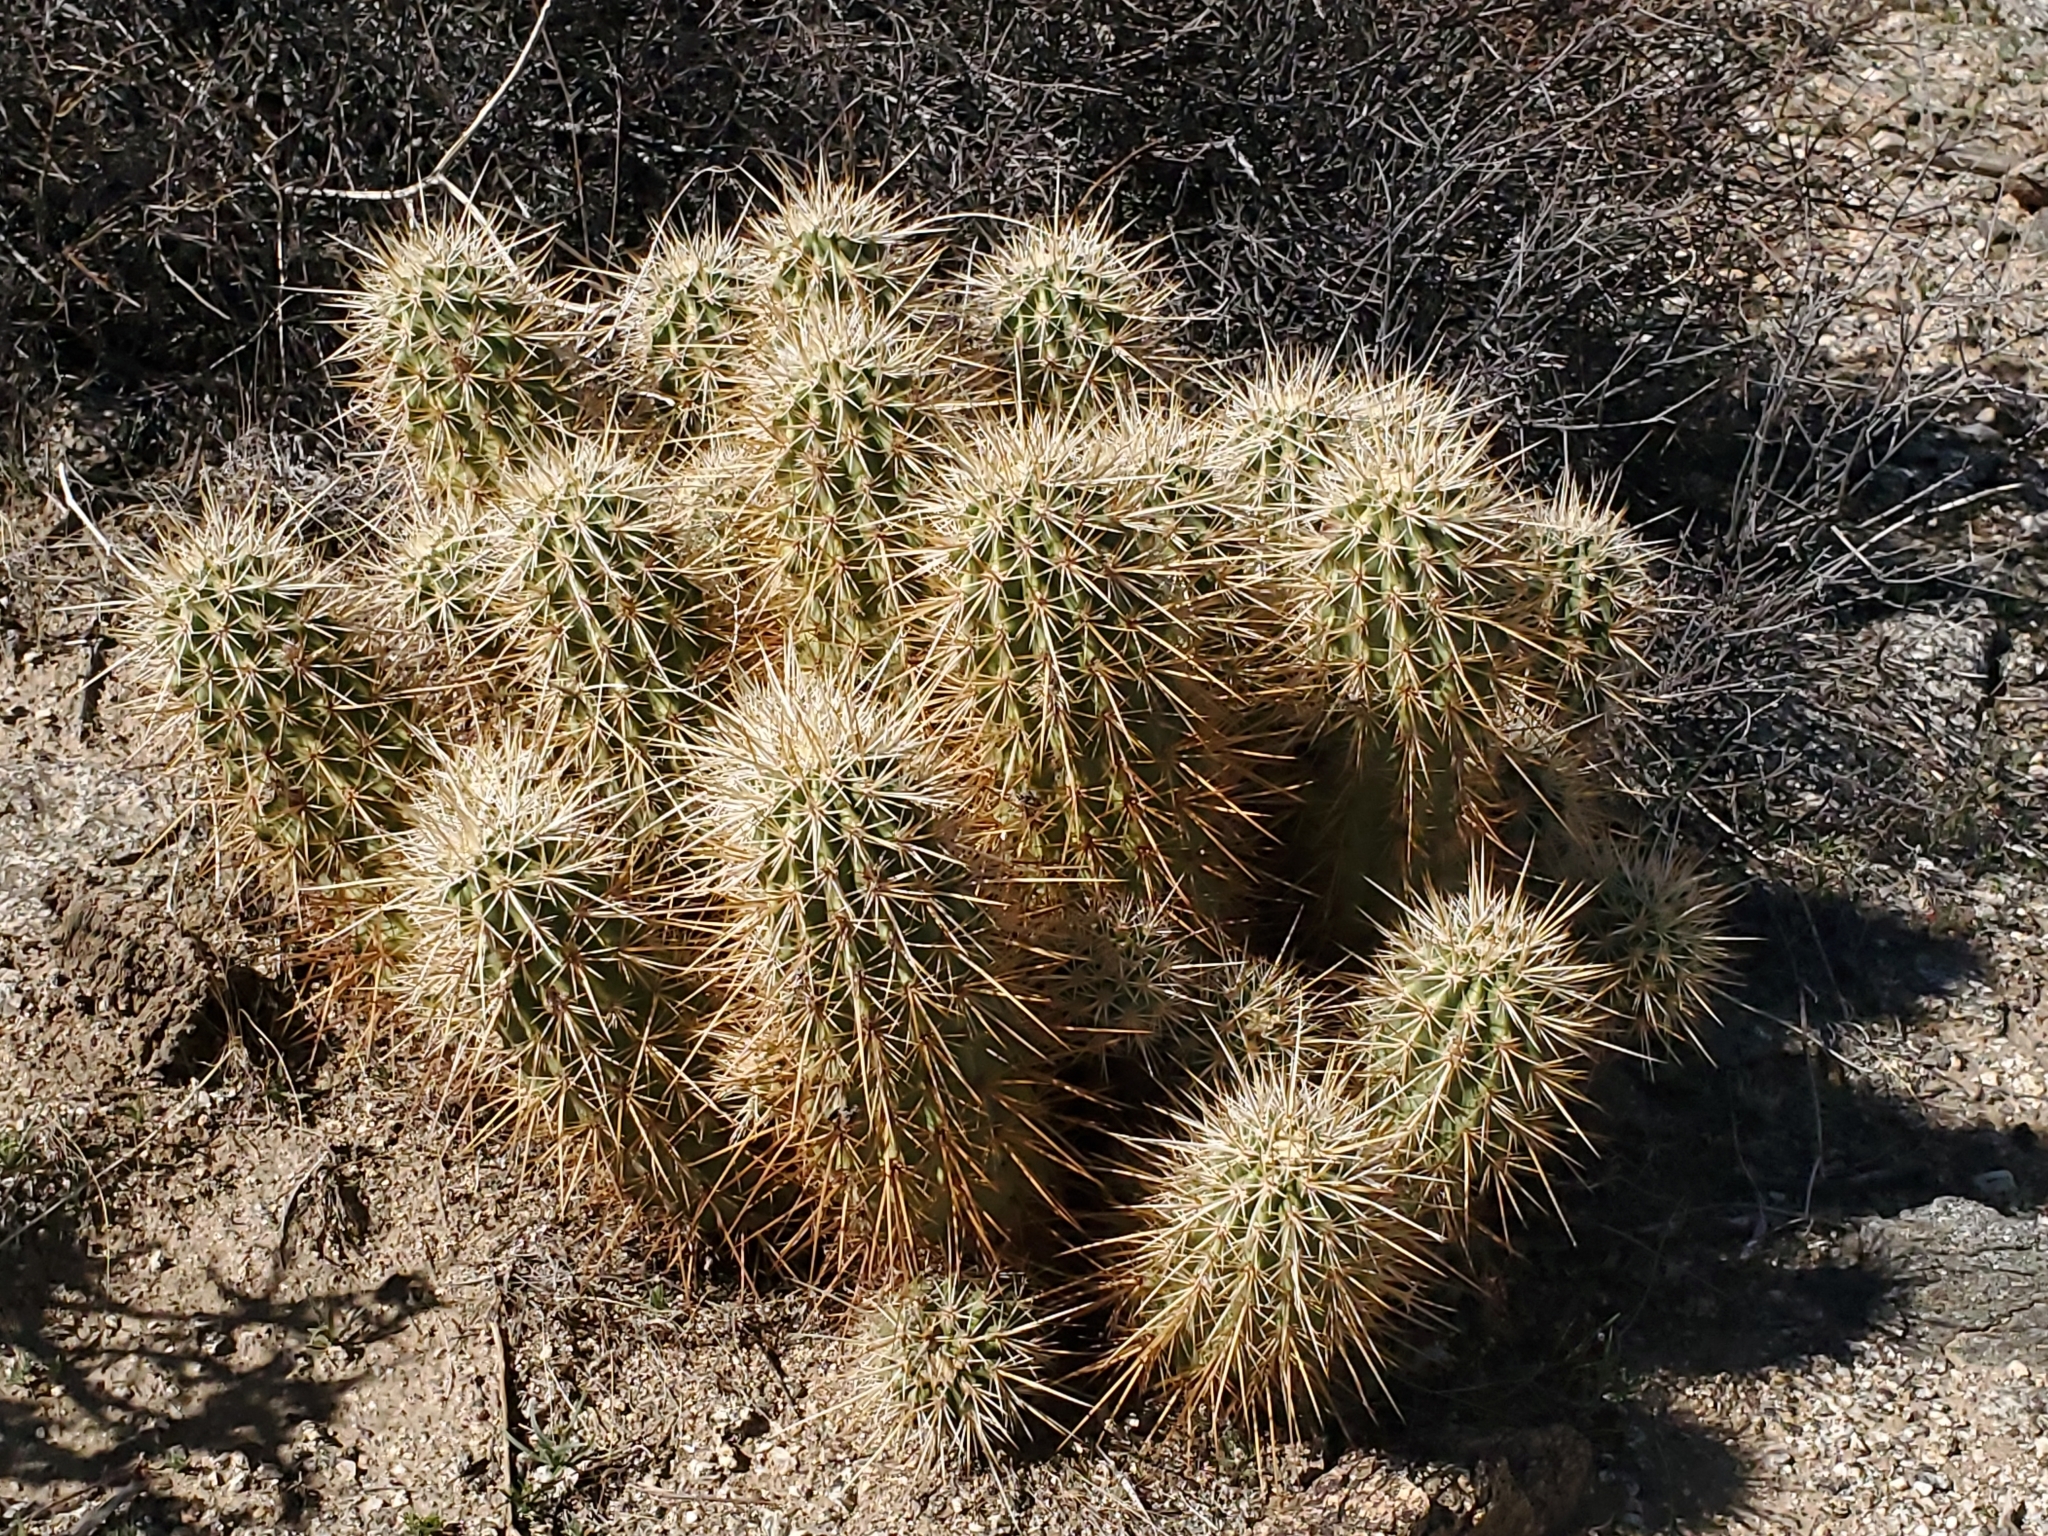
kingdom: Plantae
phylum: Tracheophyta
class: Magnoliopsida
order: Caryophyllales
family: Cactaceae
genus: Echinocereus
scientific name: Echinocereus engelmannii
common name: Engelmann's hedgehog cactus
